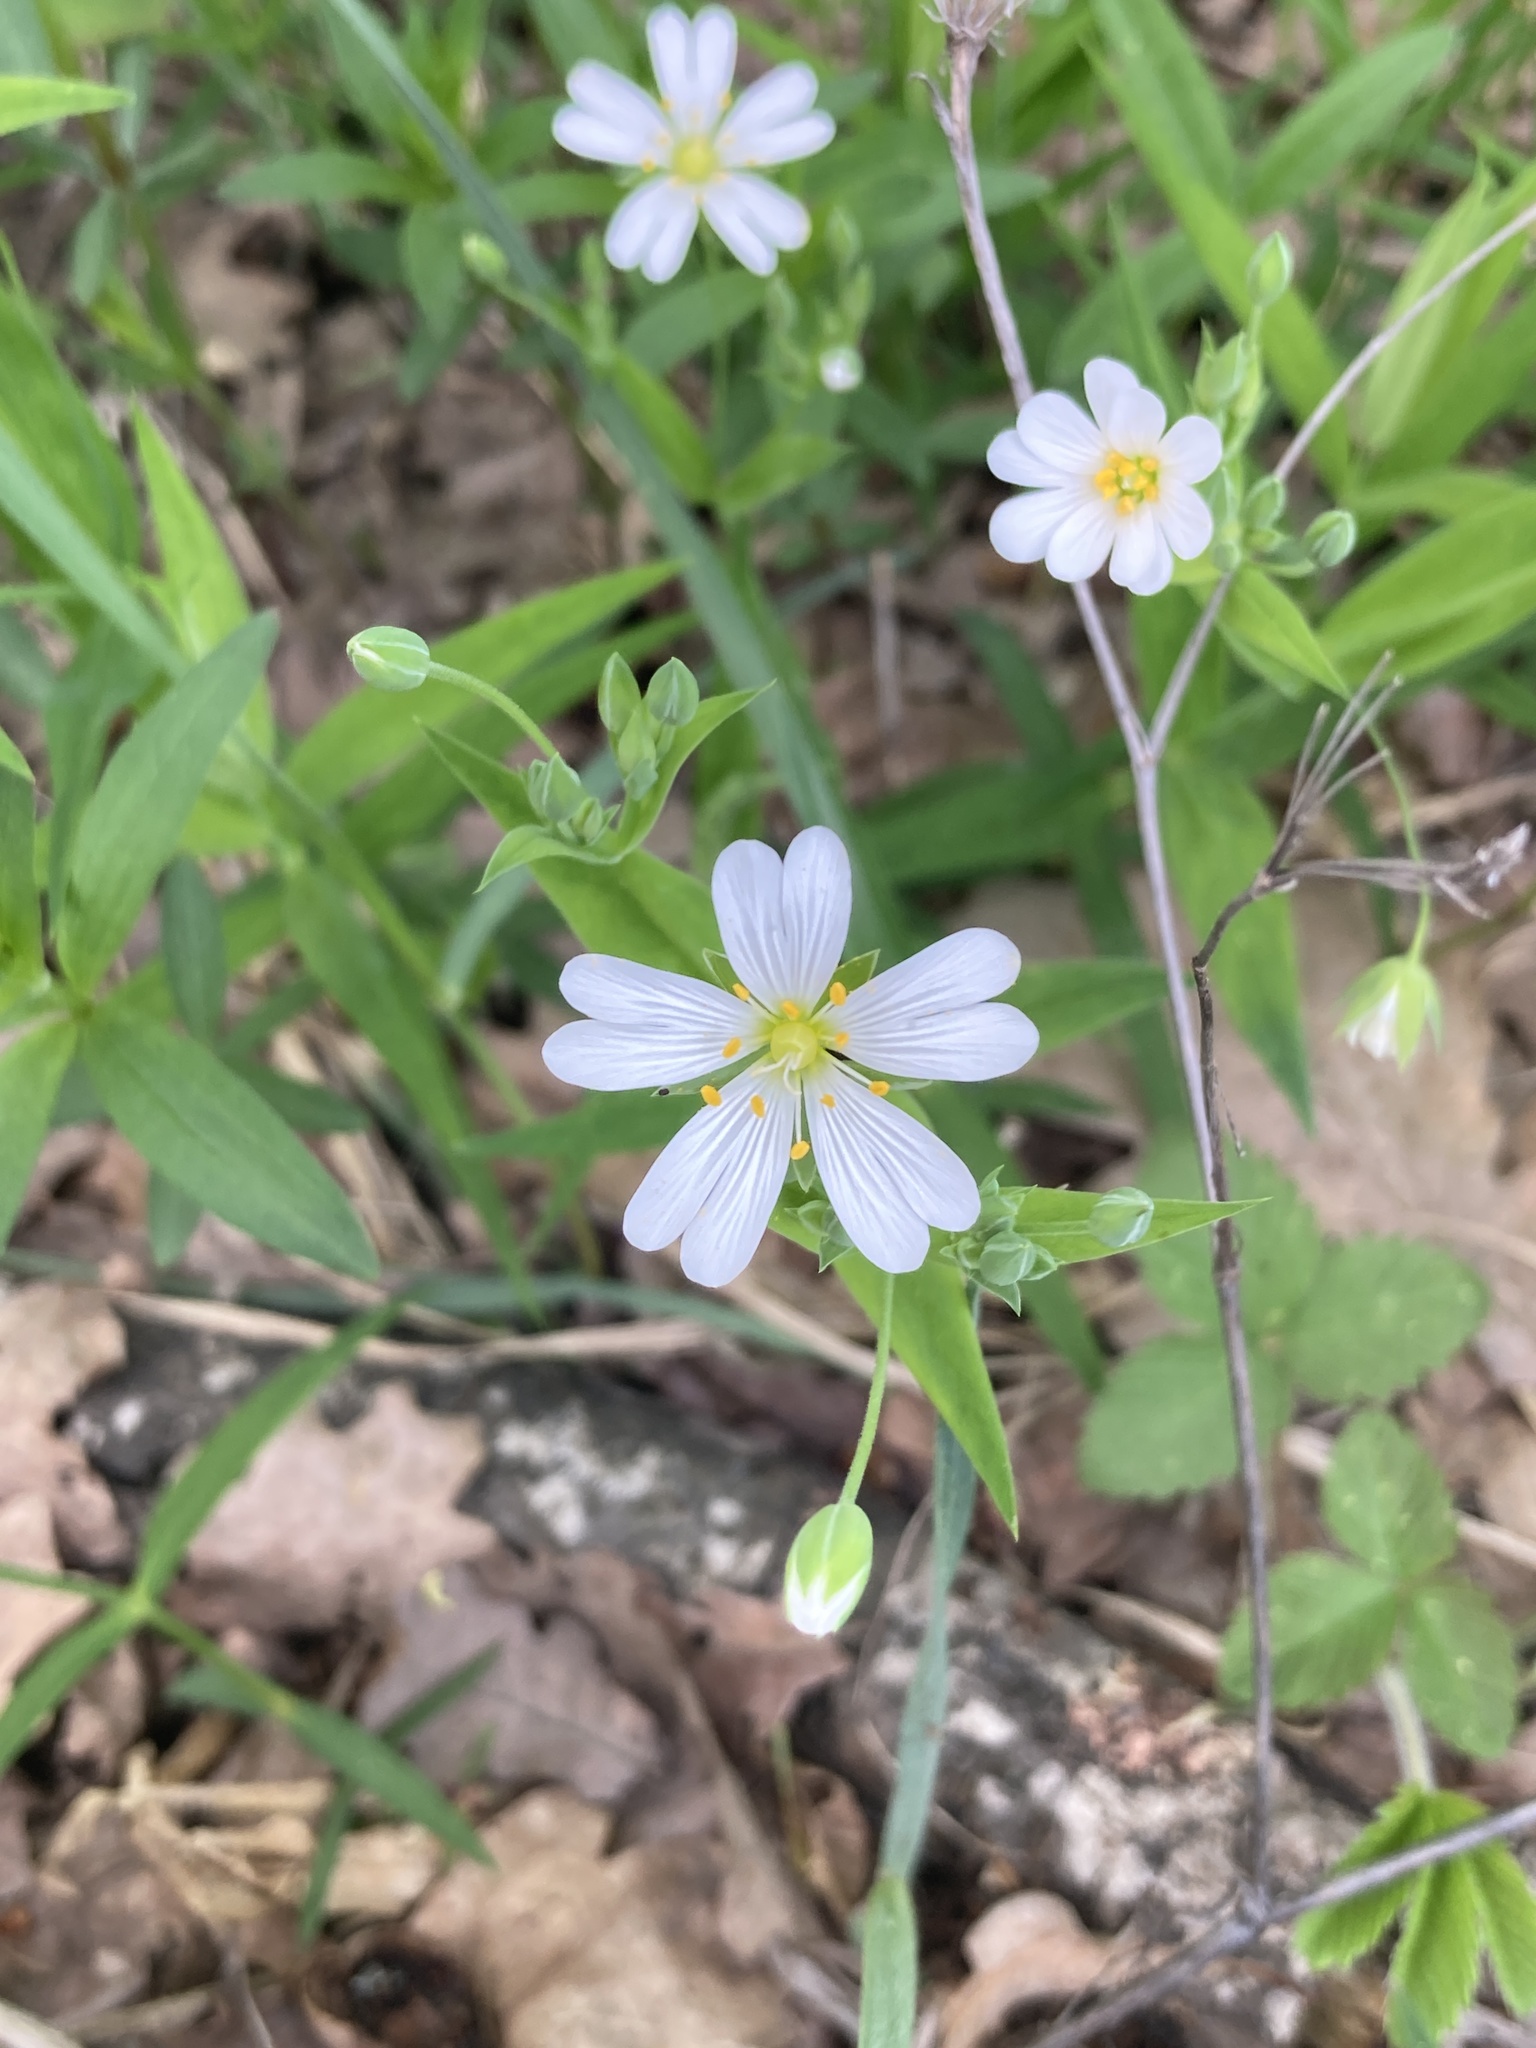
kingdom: Plantae
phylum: Tracheophyta
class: Magnoliopsida
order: Caryophyllales
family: Caryophyllaceae
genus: Rabelera
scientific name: Rabelera holostea
